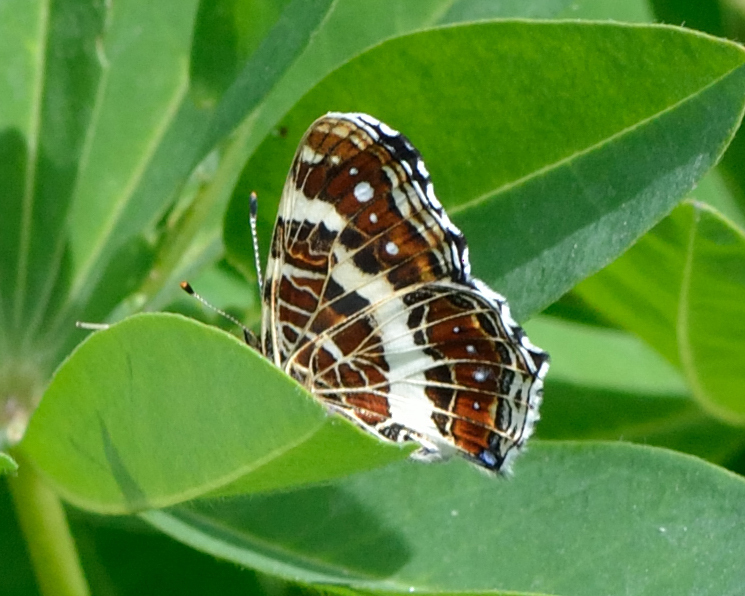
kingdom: Animalia
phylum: Arthropoda
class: Insecta
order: Lepidoptera
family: Nymphalidae
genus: Araschnia
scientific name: Araschnia levana
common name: Map butterfly
